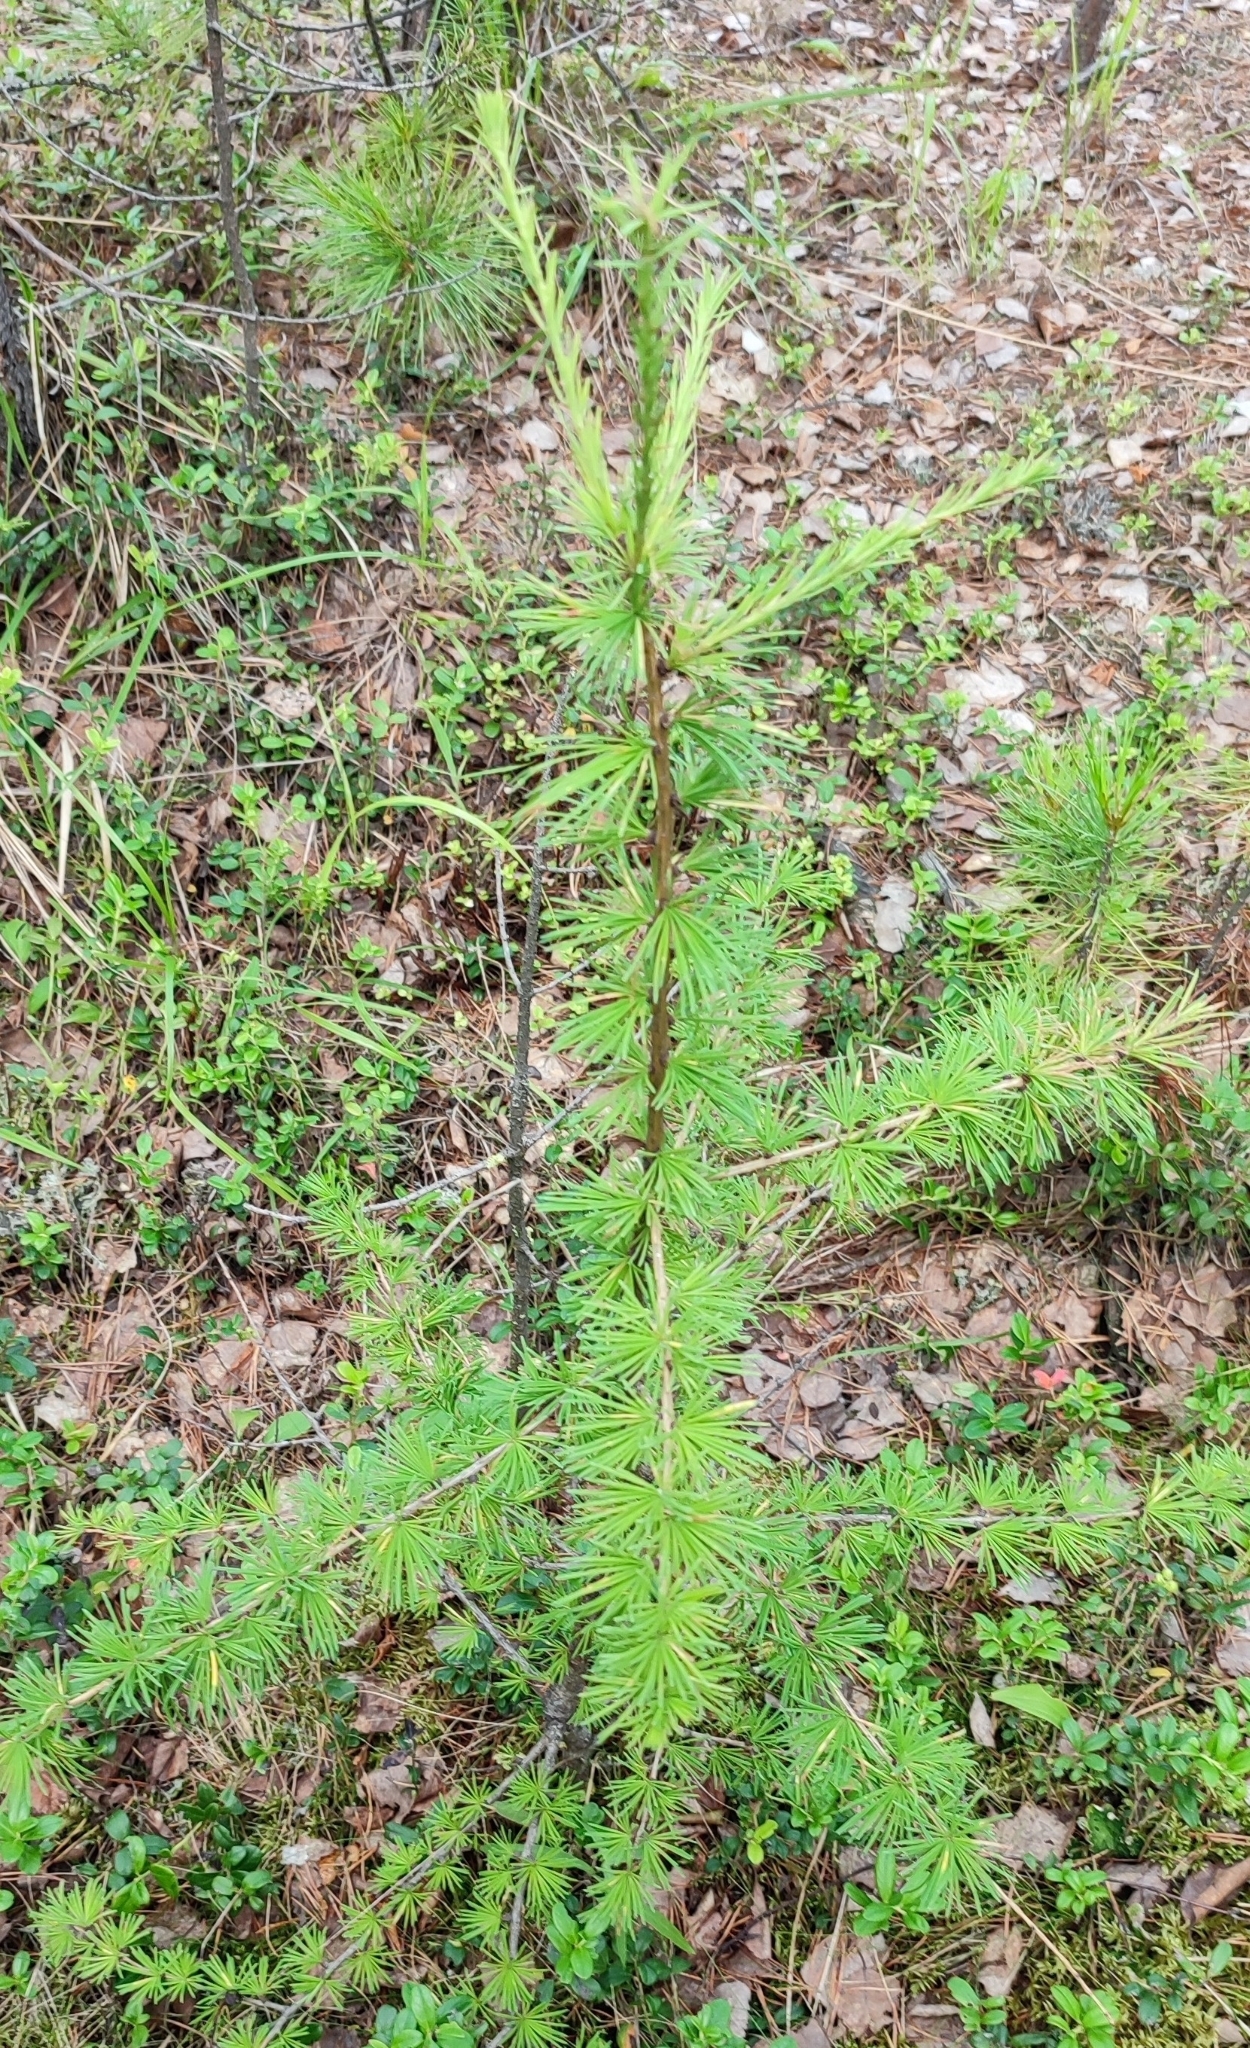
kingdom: Plantae
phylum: Tracheophyta
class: Pinopsida
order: Pinales
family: Pinaceae
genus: Larix
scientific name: Larix sibirica
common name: Siberian larch
